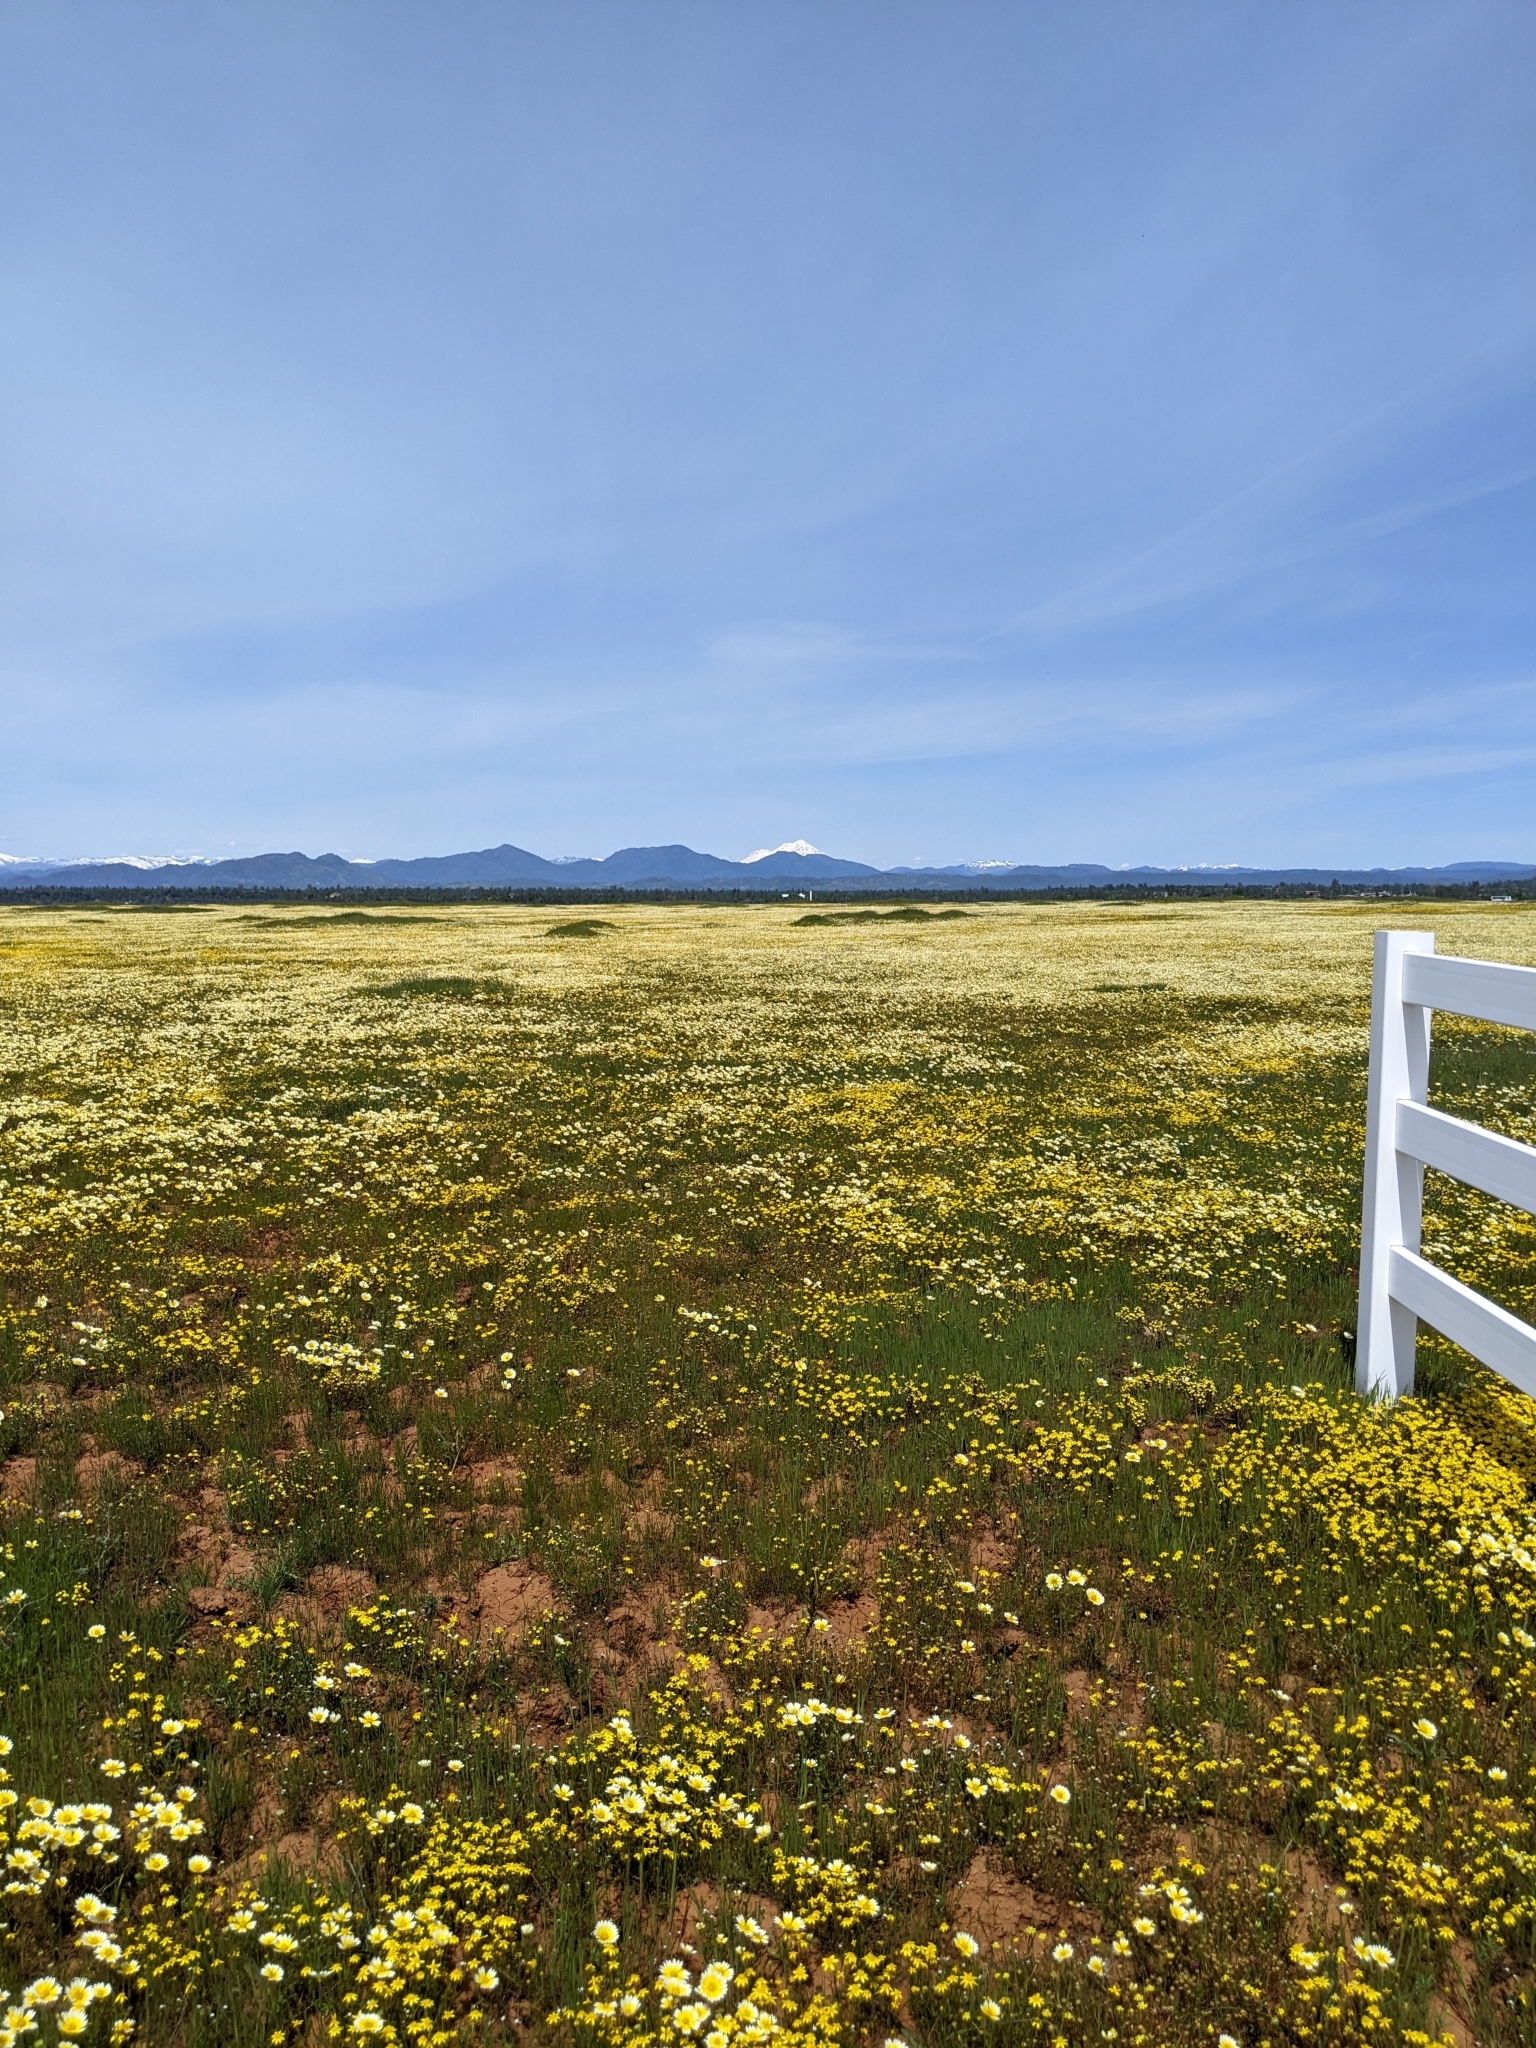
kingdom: Plantae
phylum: Tracheophyta
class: Magnoliopsida
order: Asterales
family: Asteraceae
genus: Layia
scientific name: Layia fremontii
